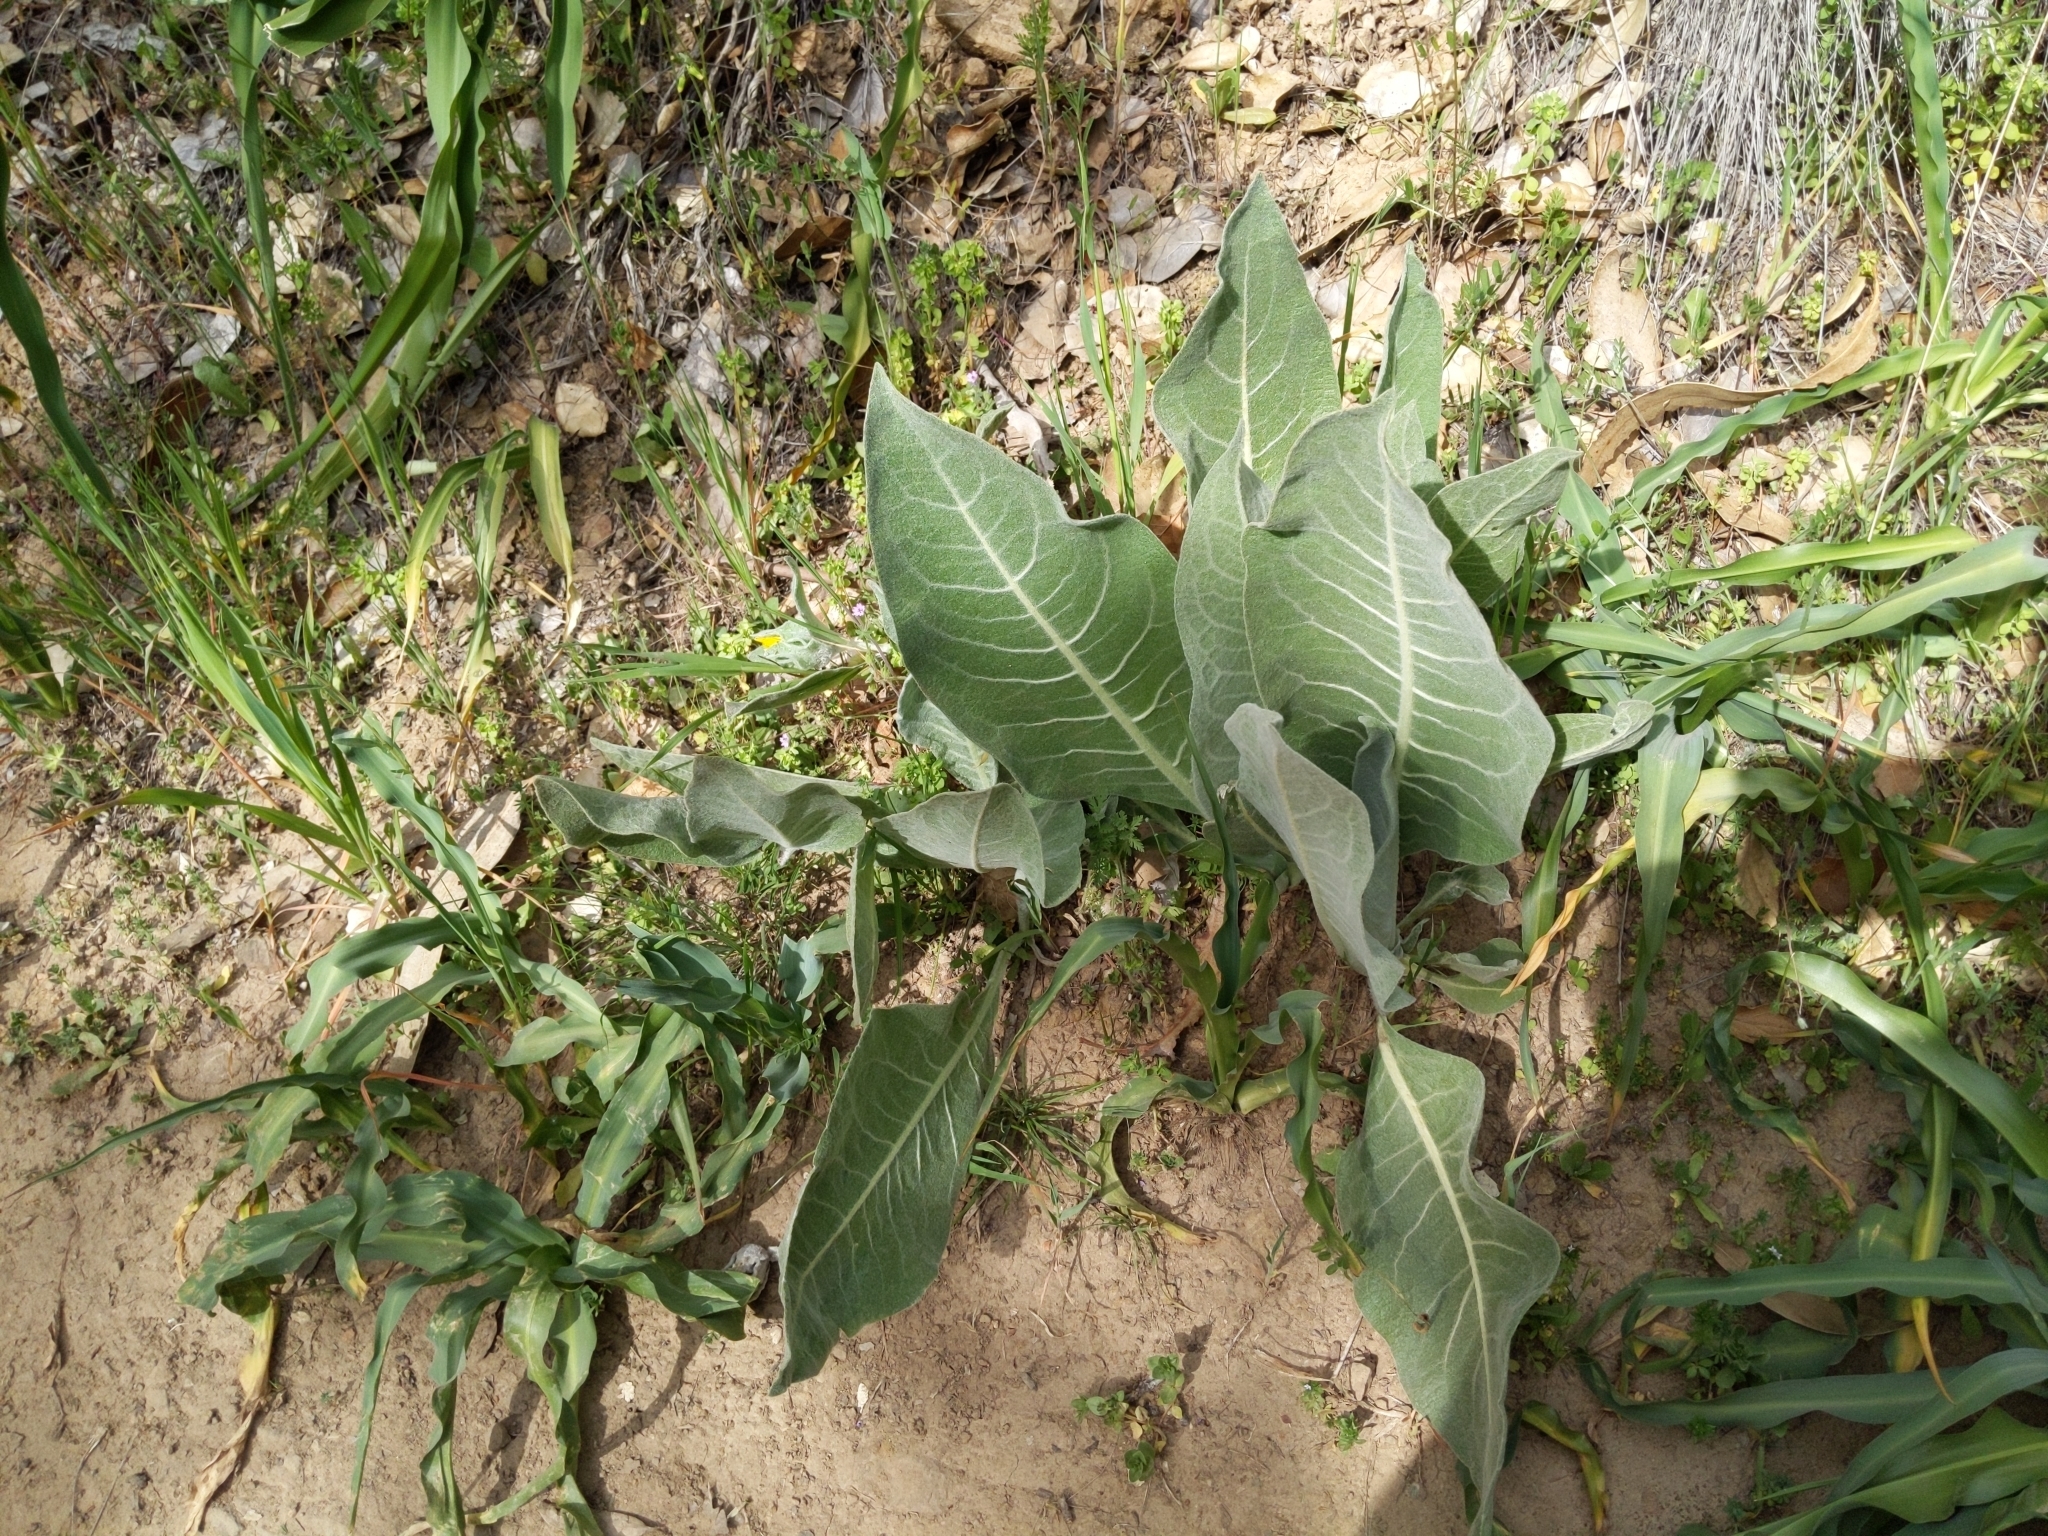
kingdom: Plantae
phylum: Tracheophyta
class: Magnoliopsida
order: Asterales
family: Asteraceae
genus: Wyethia
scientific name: Wyethia helenioides
